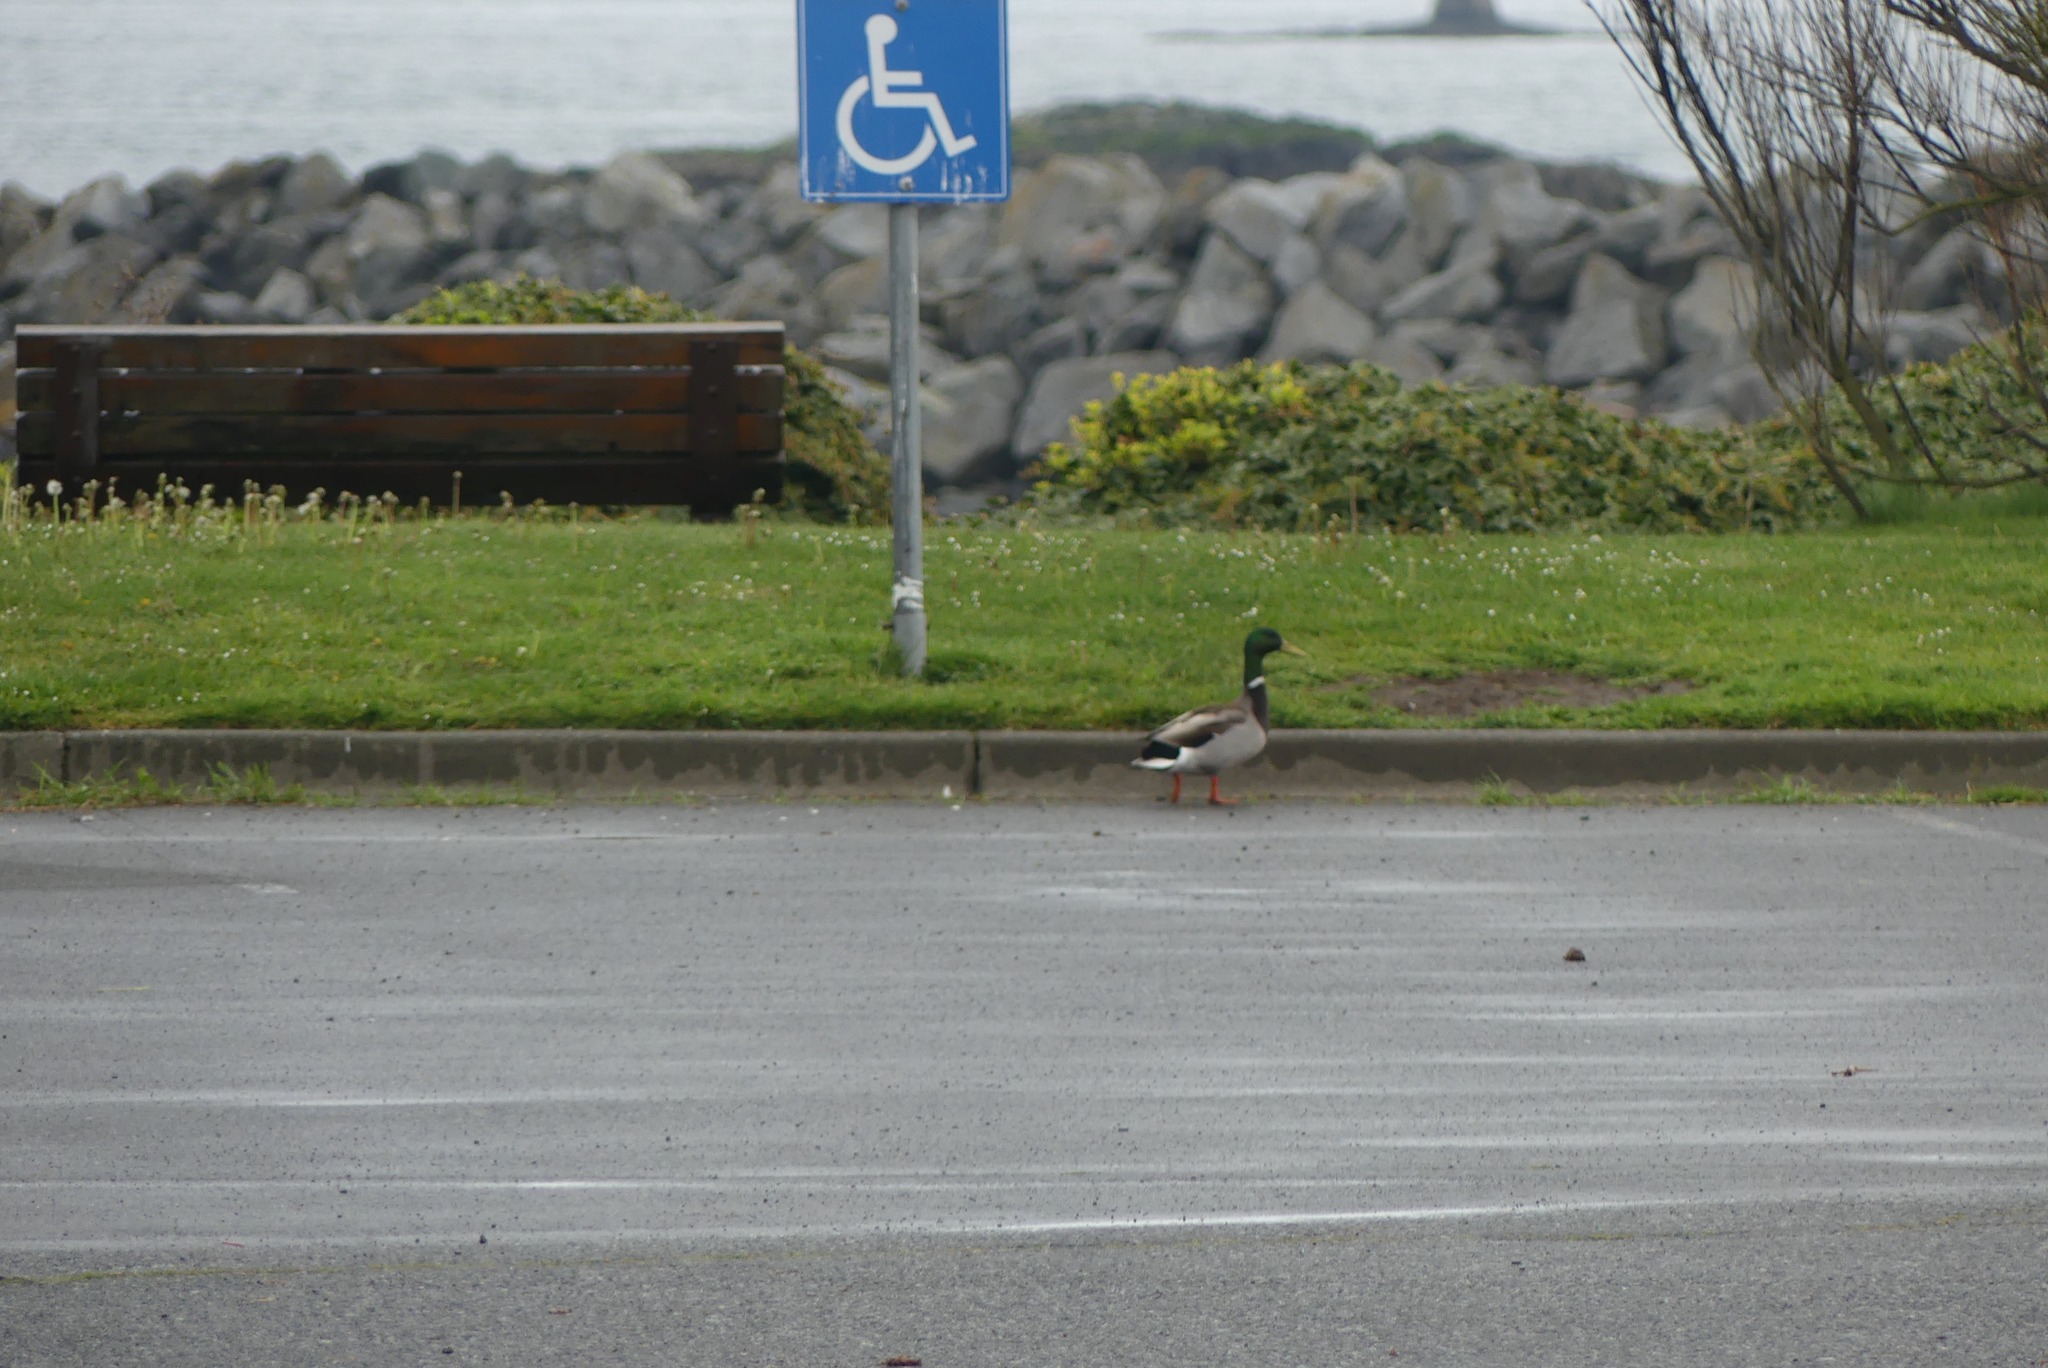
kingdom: Animalia
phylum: Chordata
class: Aves
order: Anseriformes
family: Anatidae
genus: Anas
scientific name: Anas platyrhynchos
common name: Mallard
